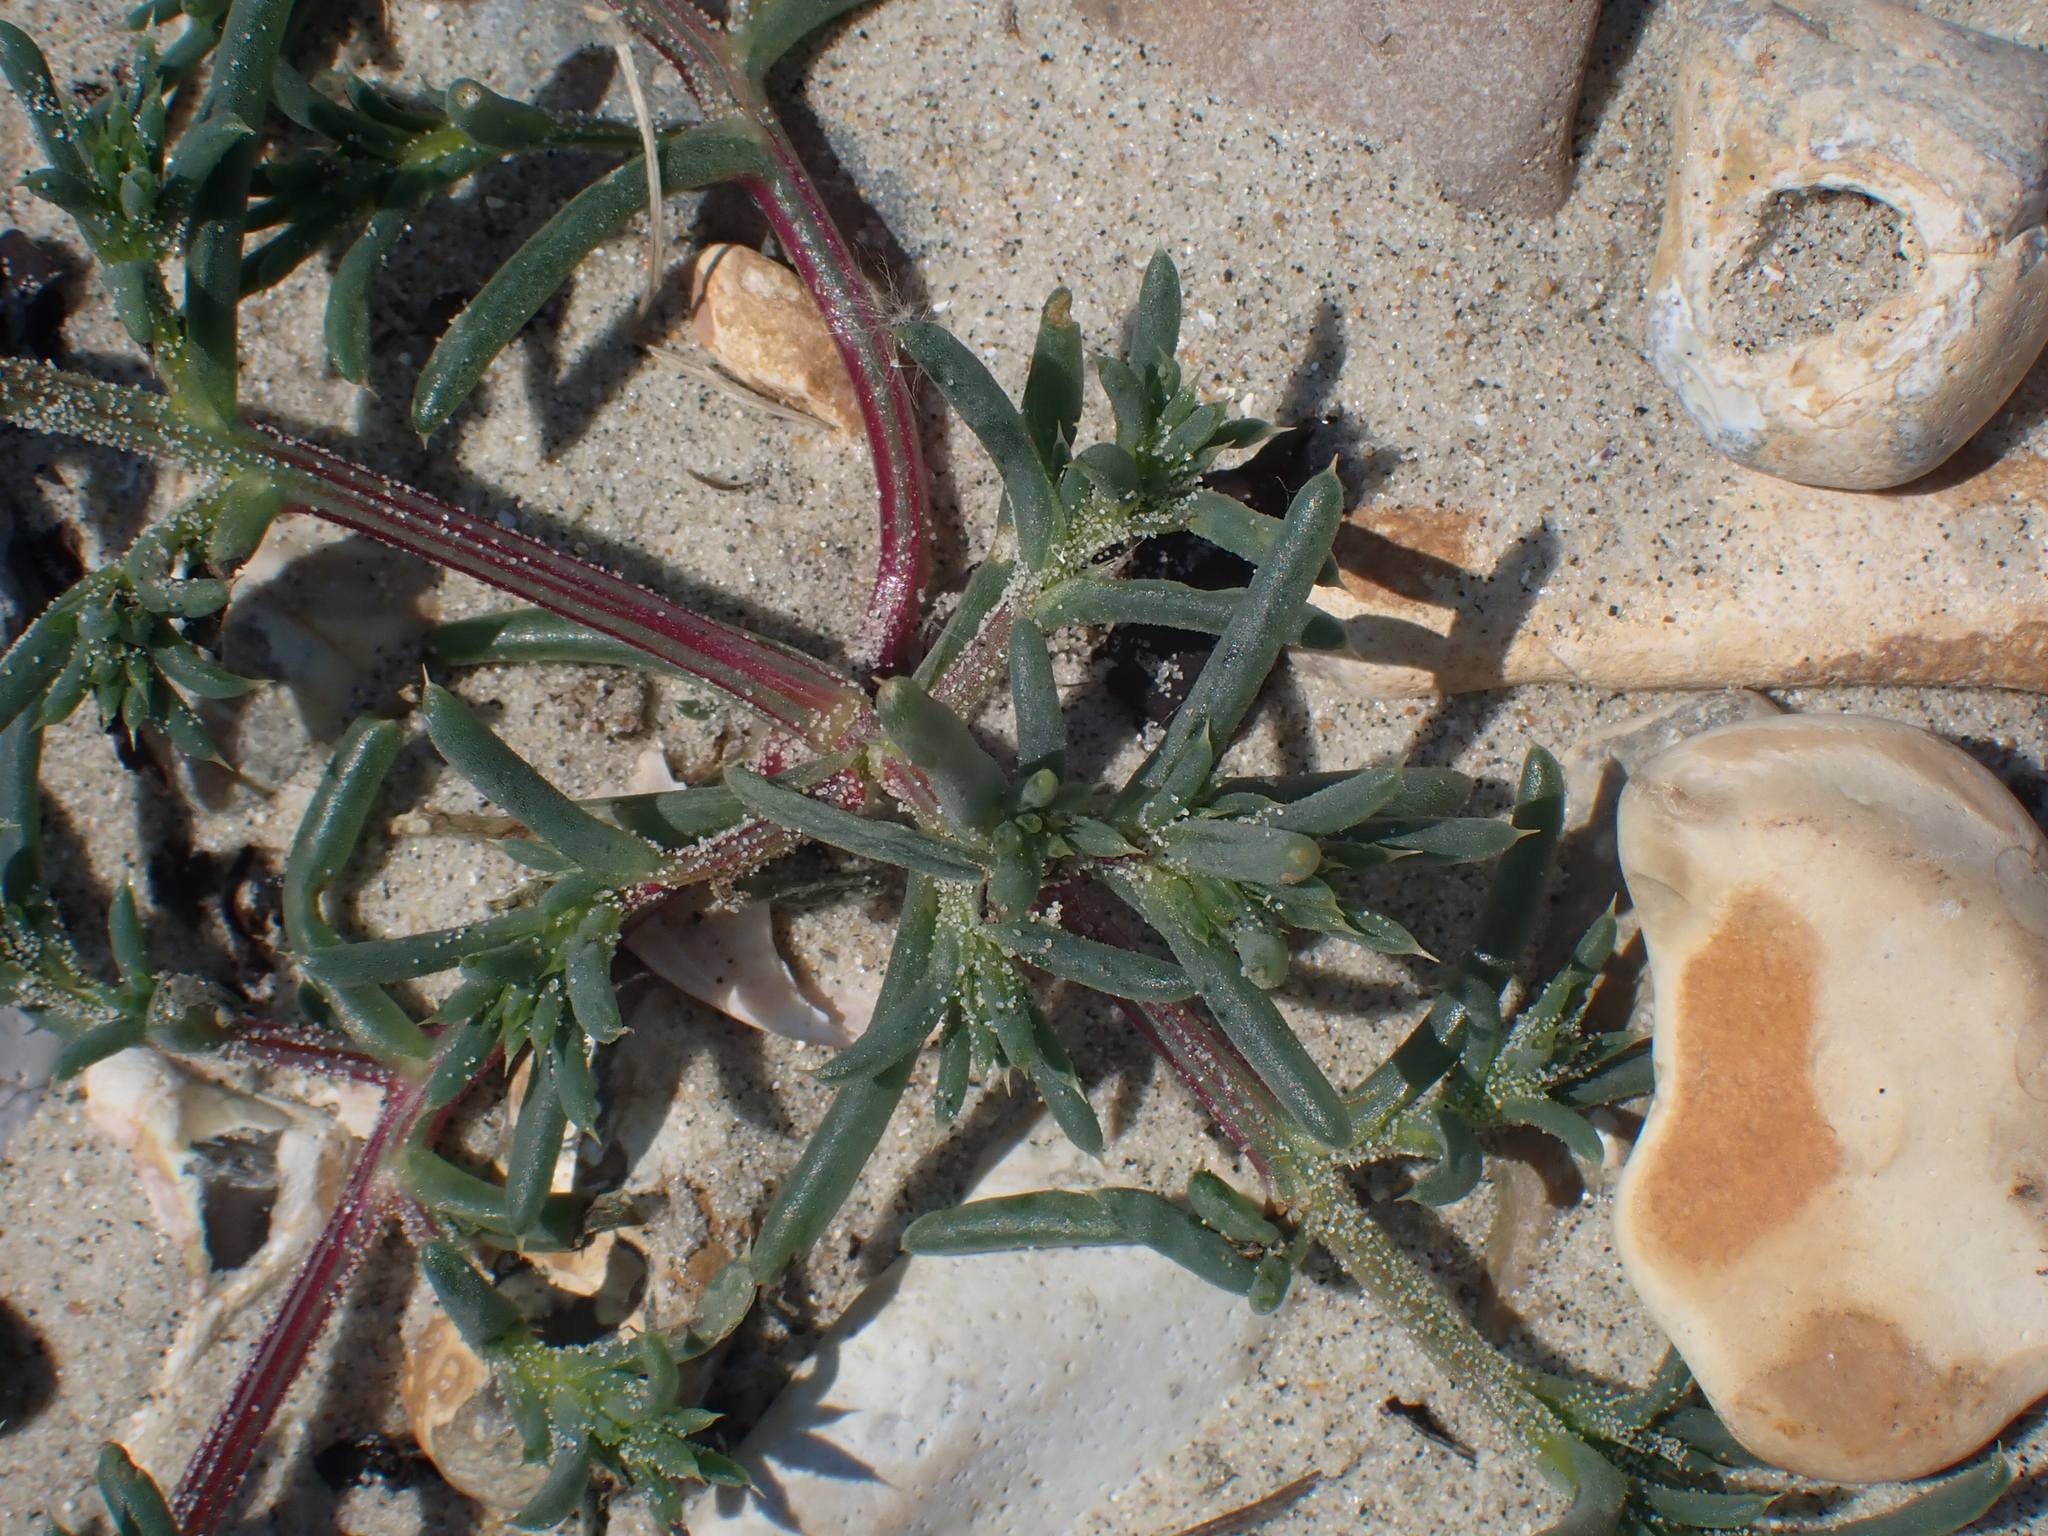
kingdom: Plantae
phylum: Tracheophyta
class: Magnoliopsida
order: Caryophyllales
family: Amaranthaceae
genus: Salsola
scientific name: Salsola kali
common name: Saltwort
